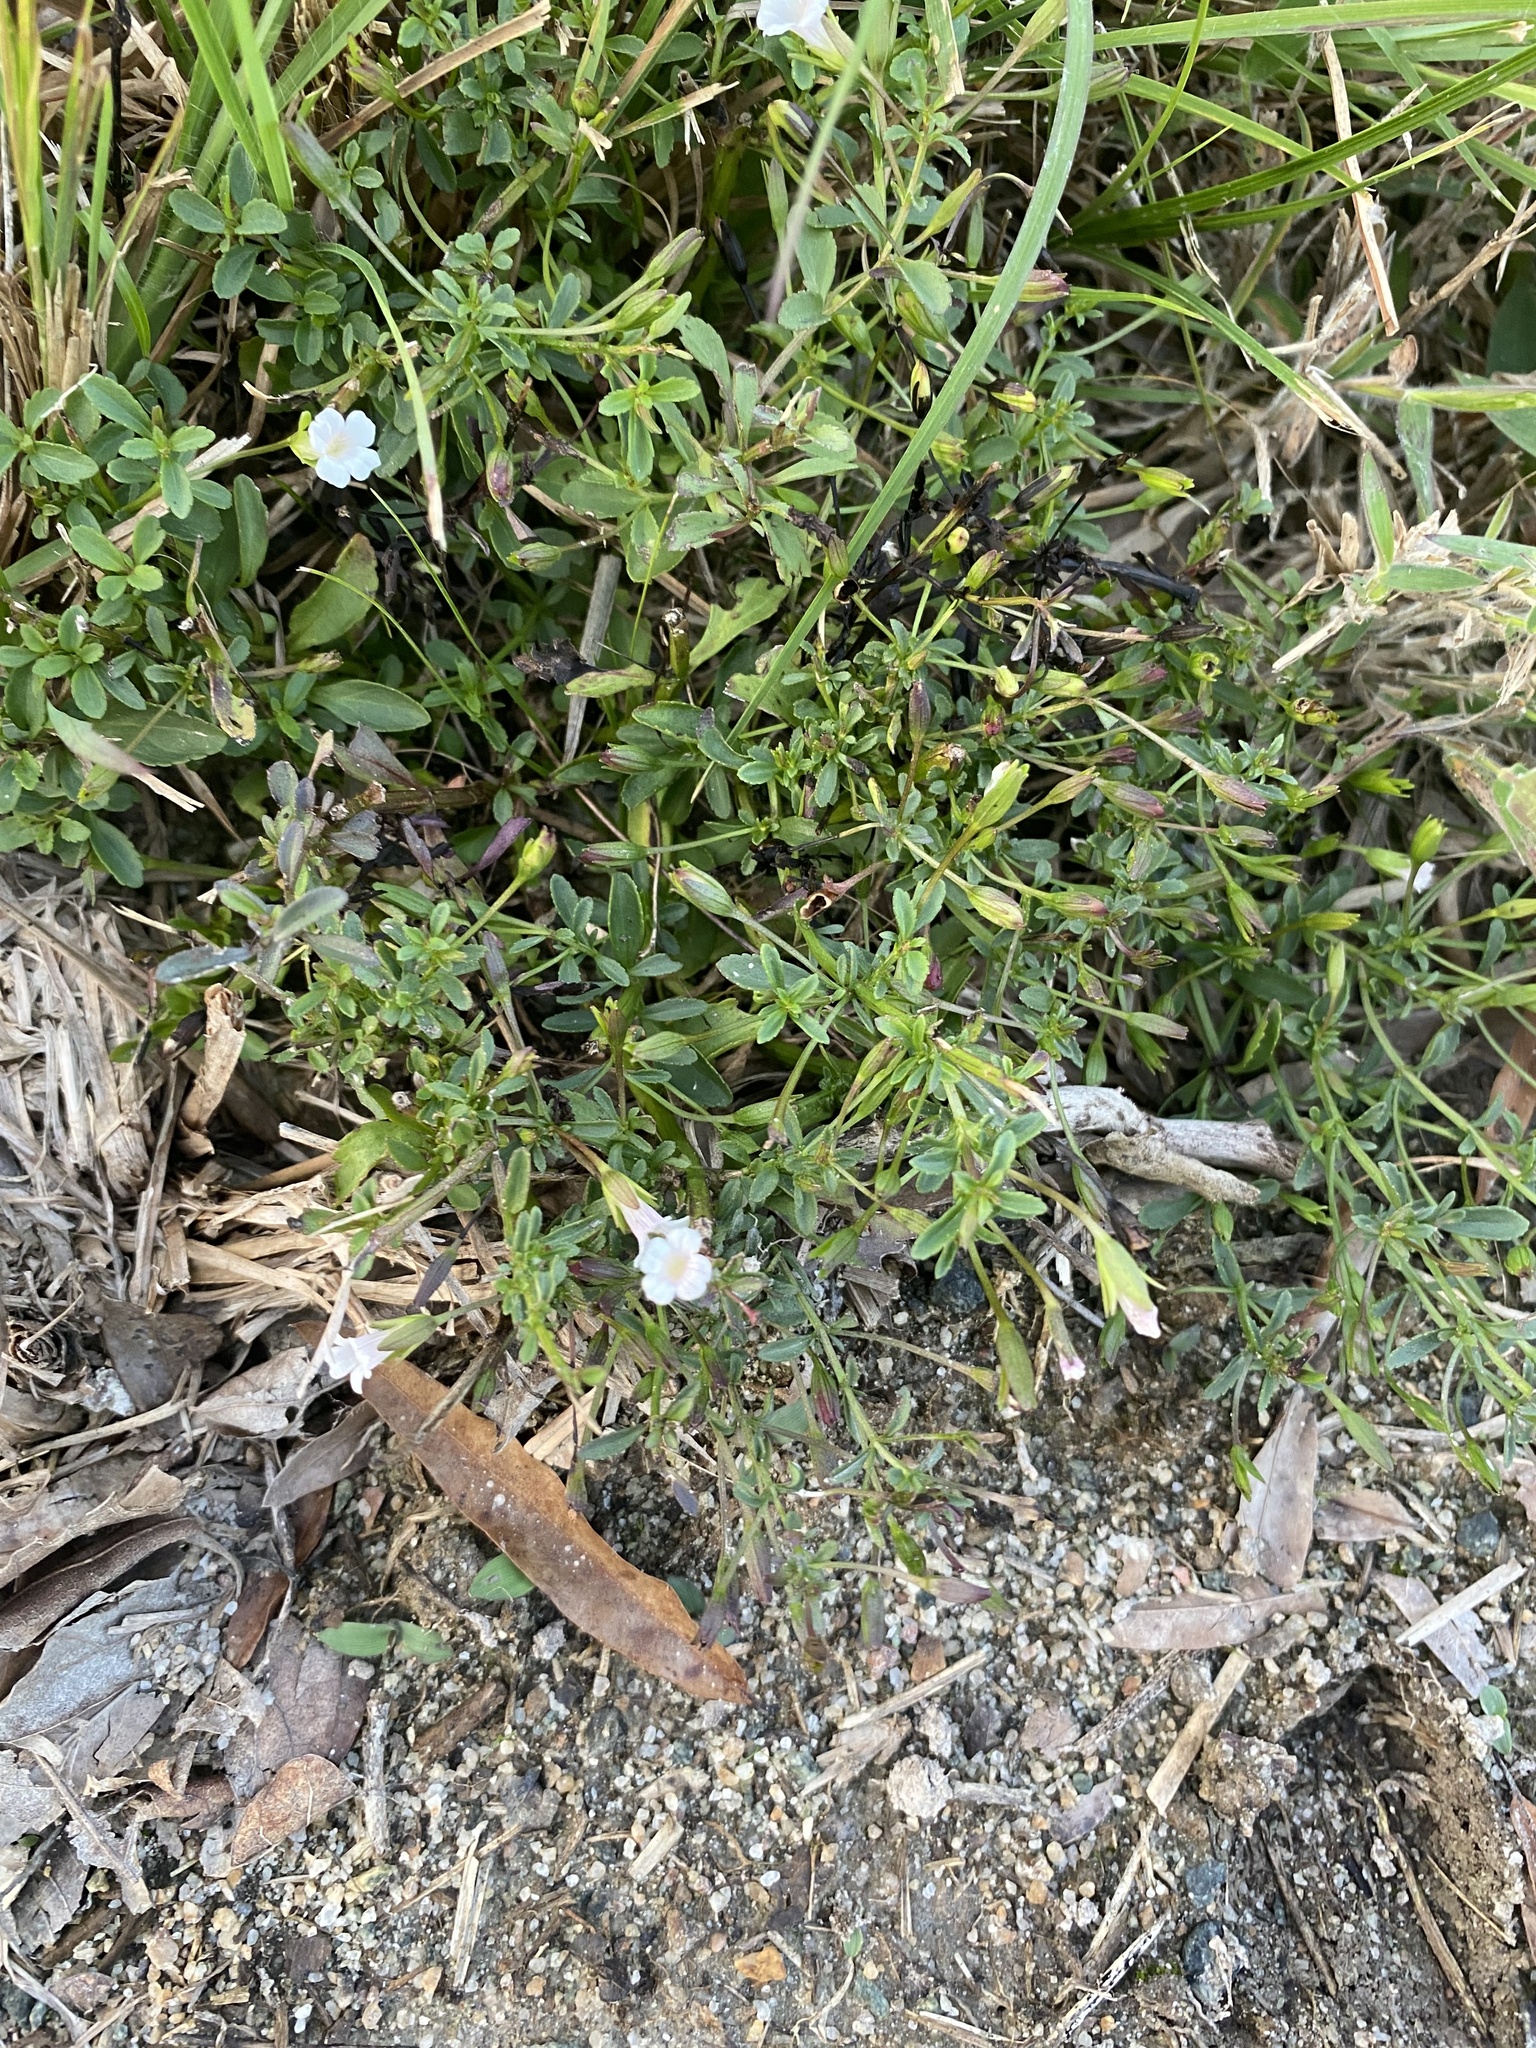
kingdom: Plantae
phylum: Tracheophyta
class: Magnoliopsida
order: Lamiales
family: Plantaginaceae
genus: Mecardonia
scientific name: Mecardonia acuminata
